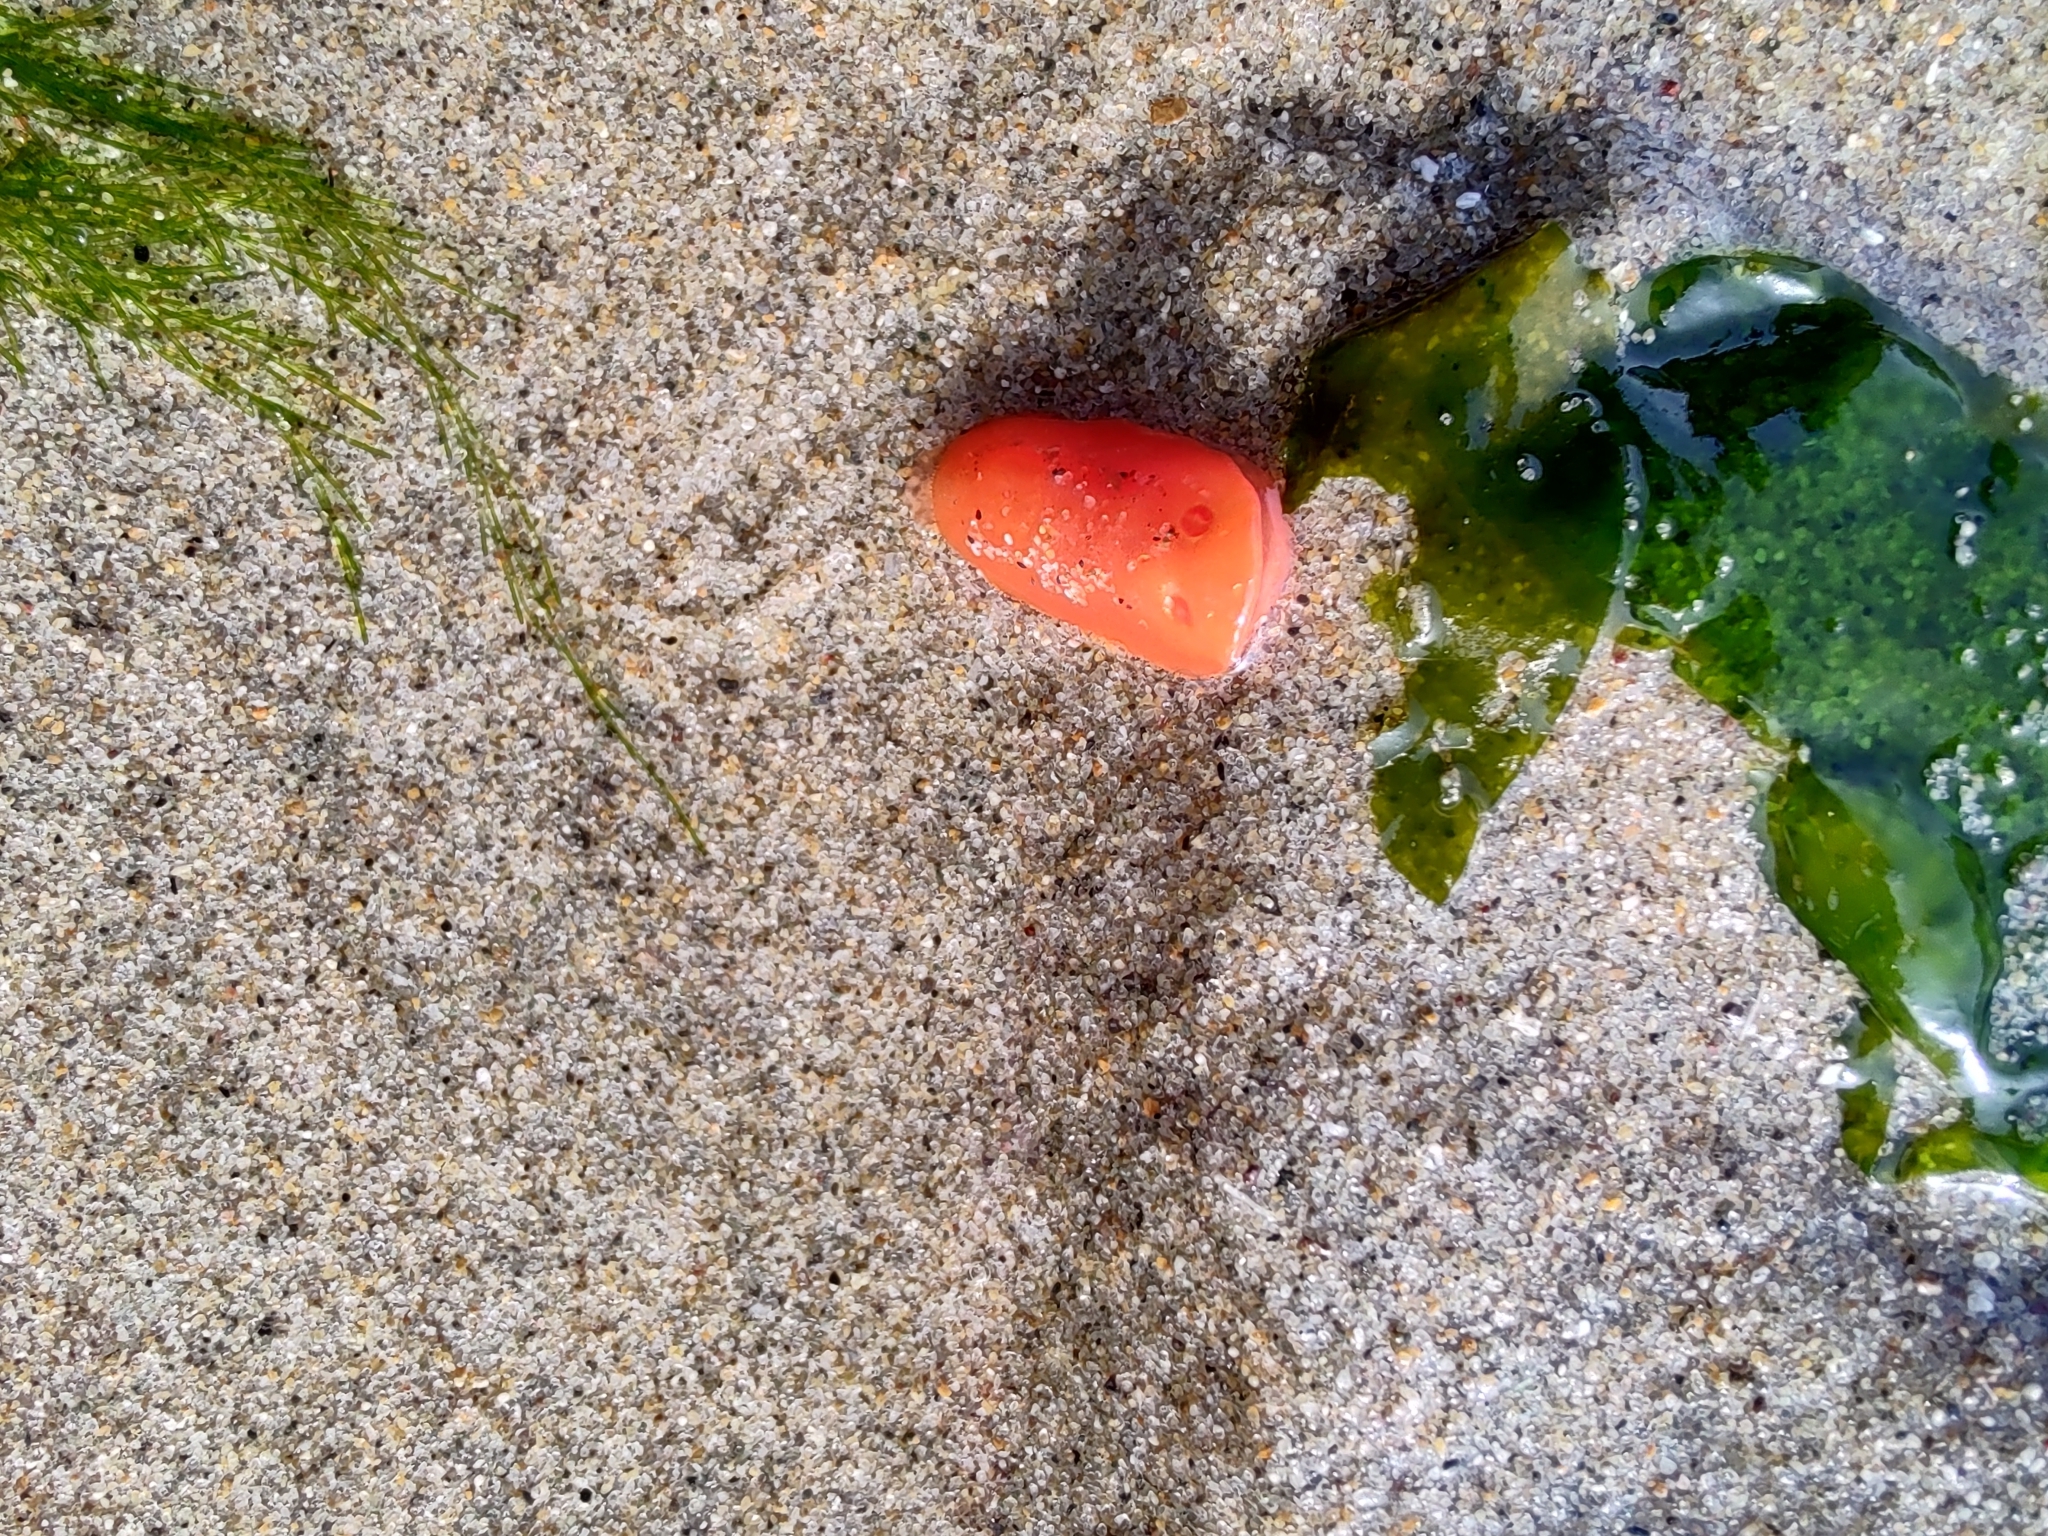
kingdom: Animalia
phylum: Mollusca
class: Gastropoda
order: Nudibranchia
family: Discodorididae
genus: Rostanga
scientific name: Rostanga pulchra
